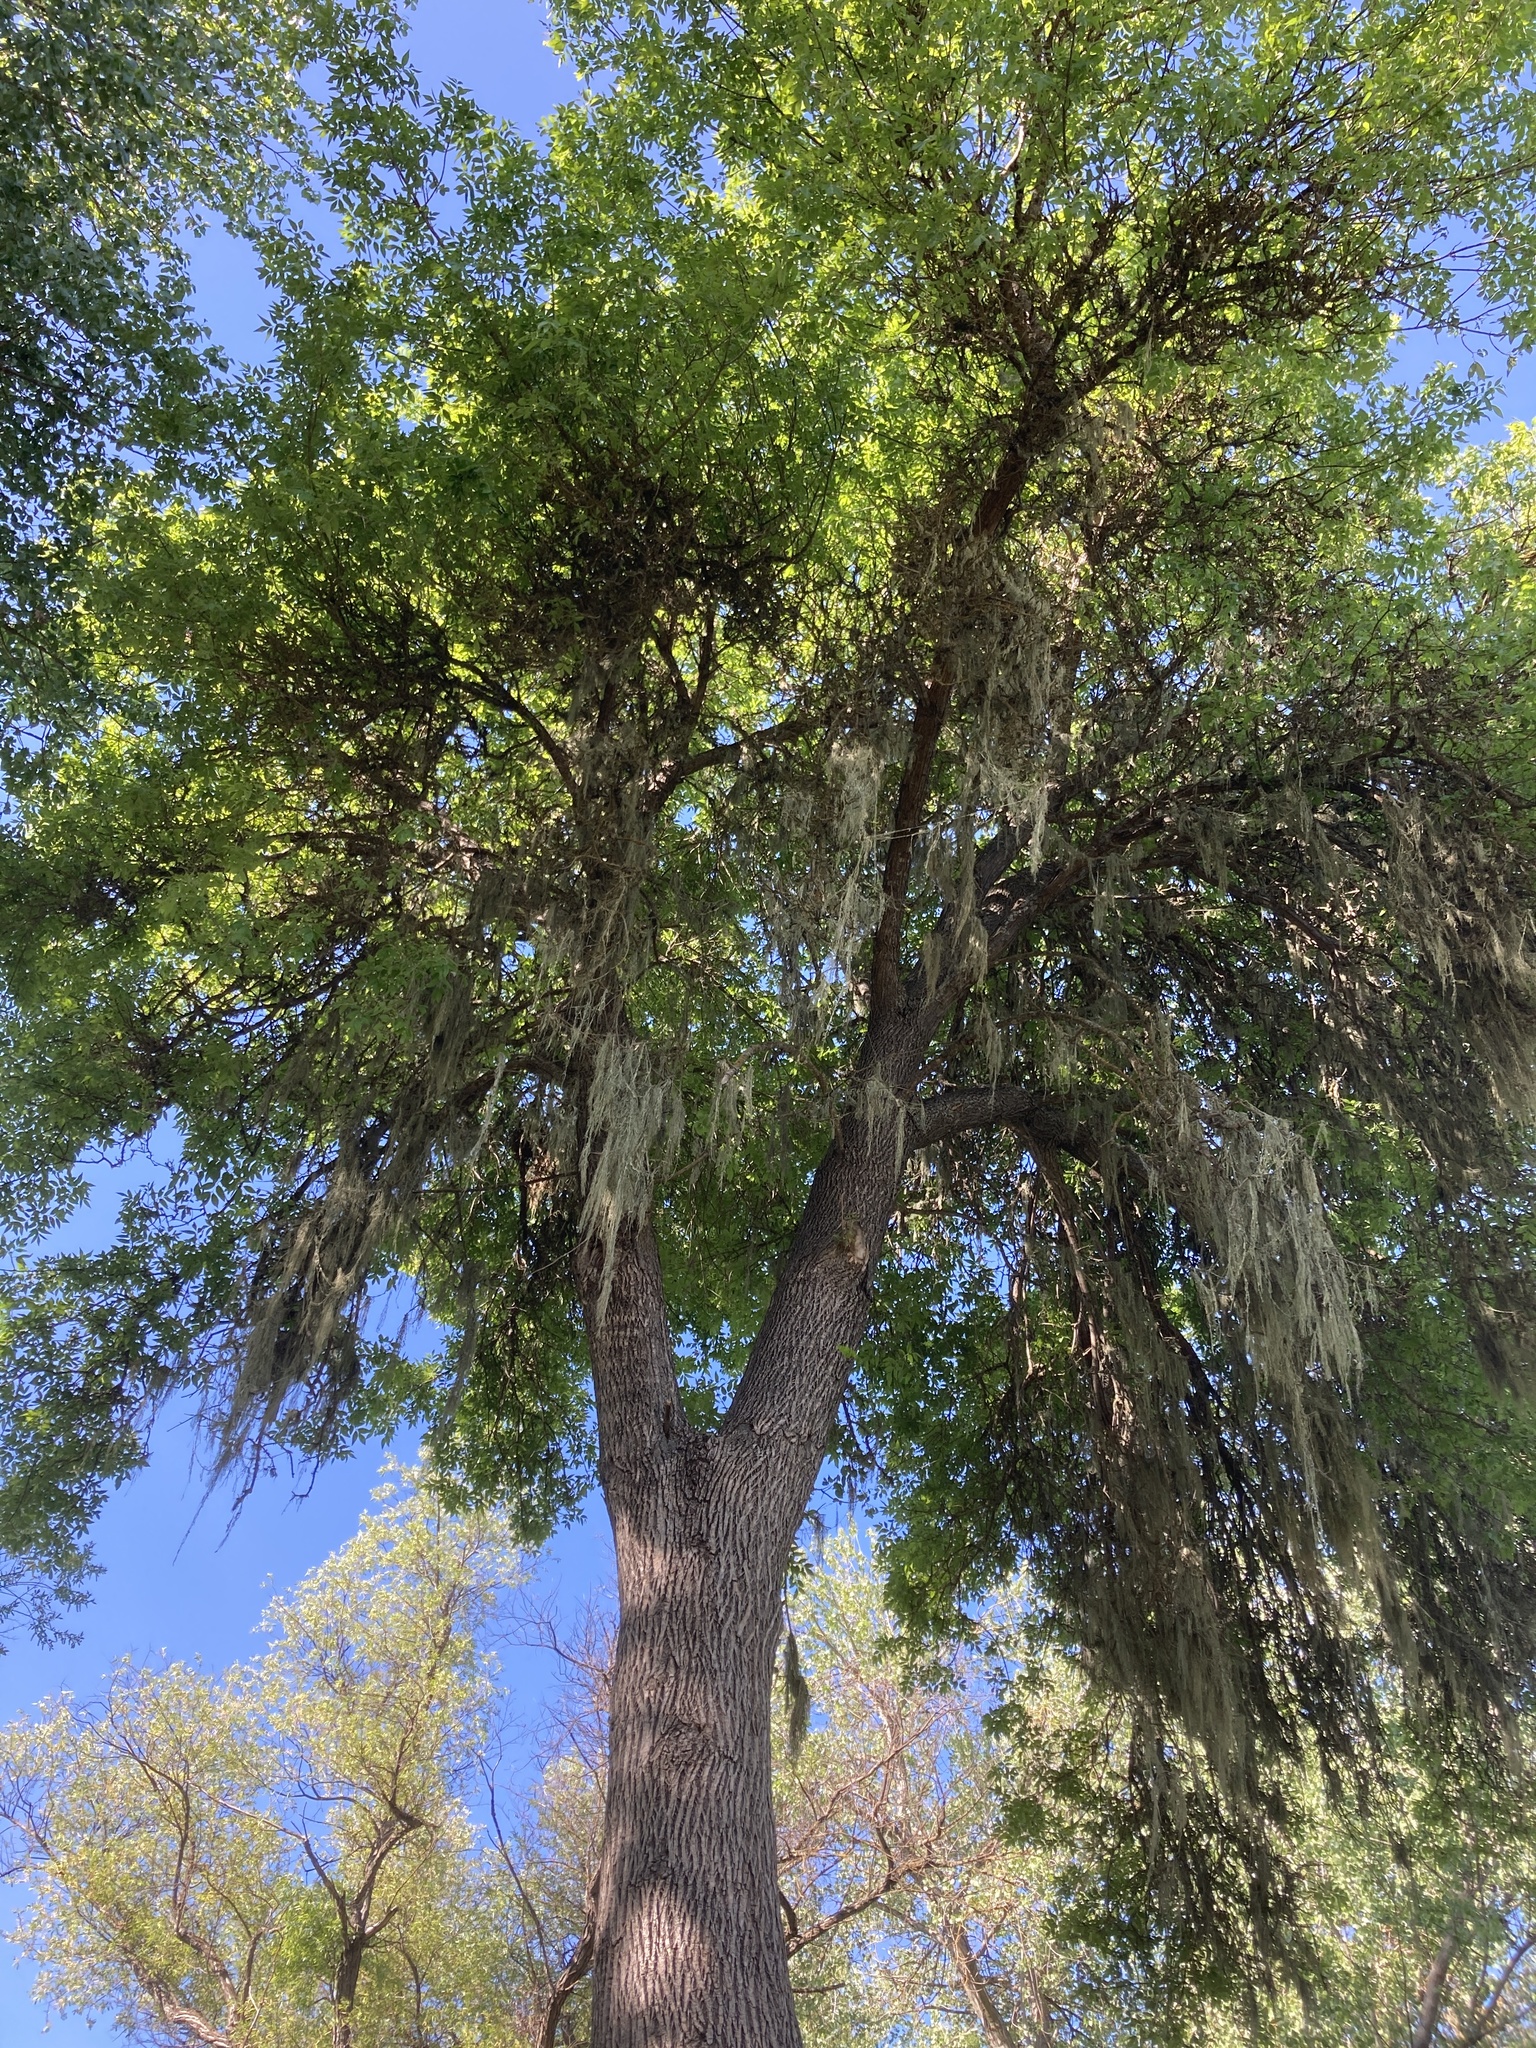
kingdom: Plantae
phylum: Tracheophyta
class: Magnoliopsida
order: Lamiales
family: Oleaceae
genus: Fraxinus
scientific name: Fraxinus velutina
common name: Arizon ash
